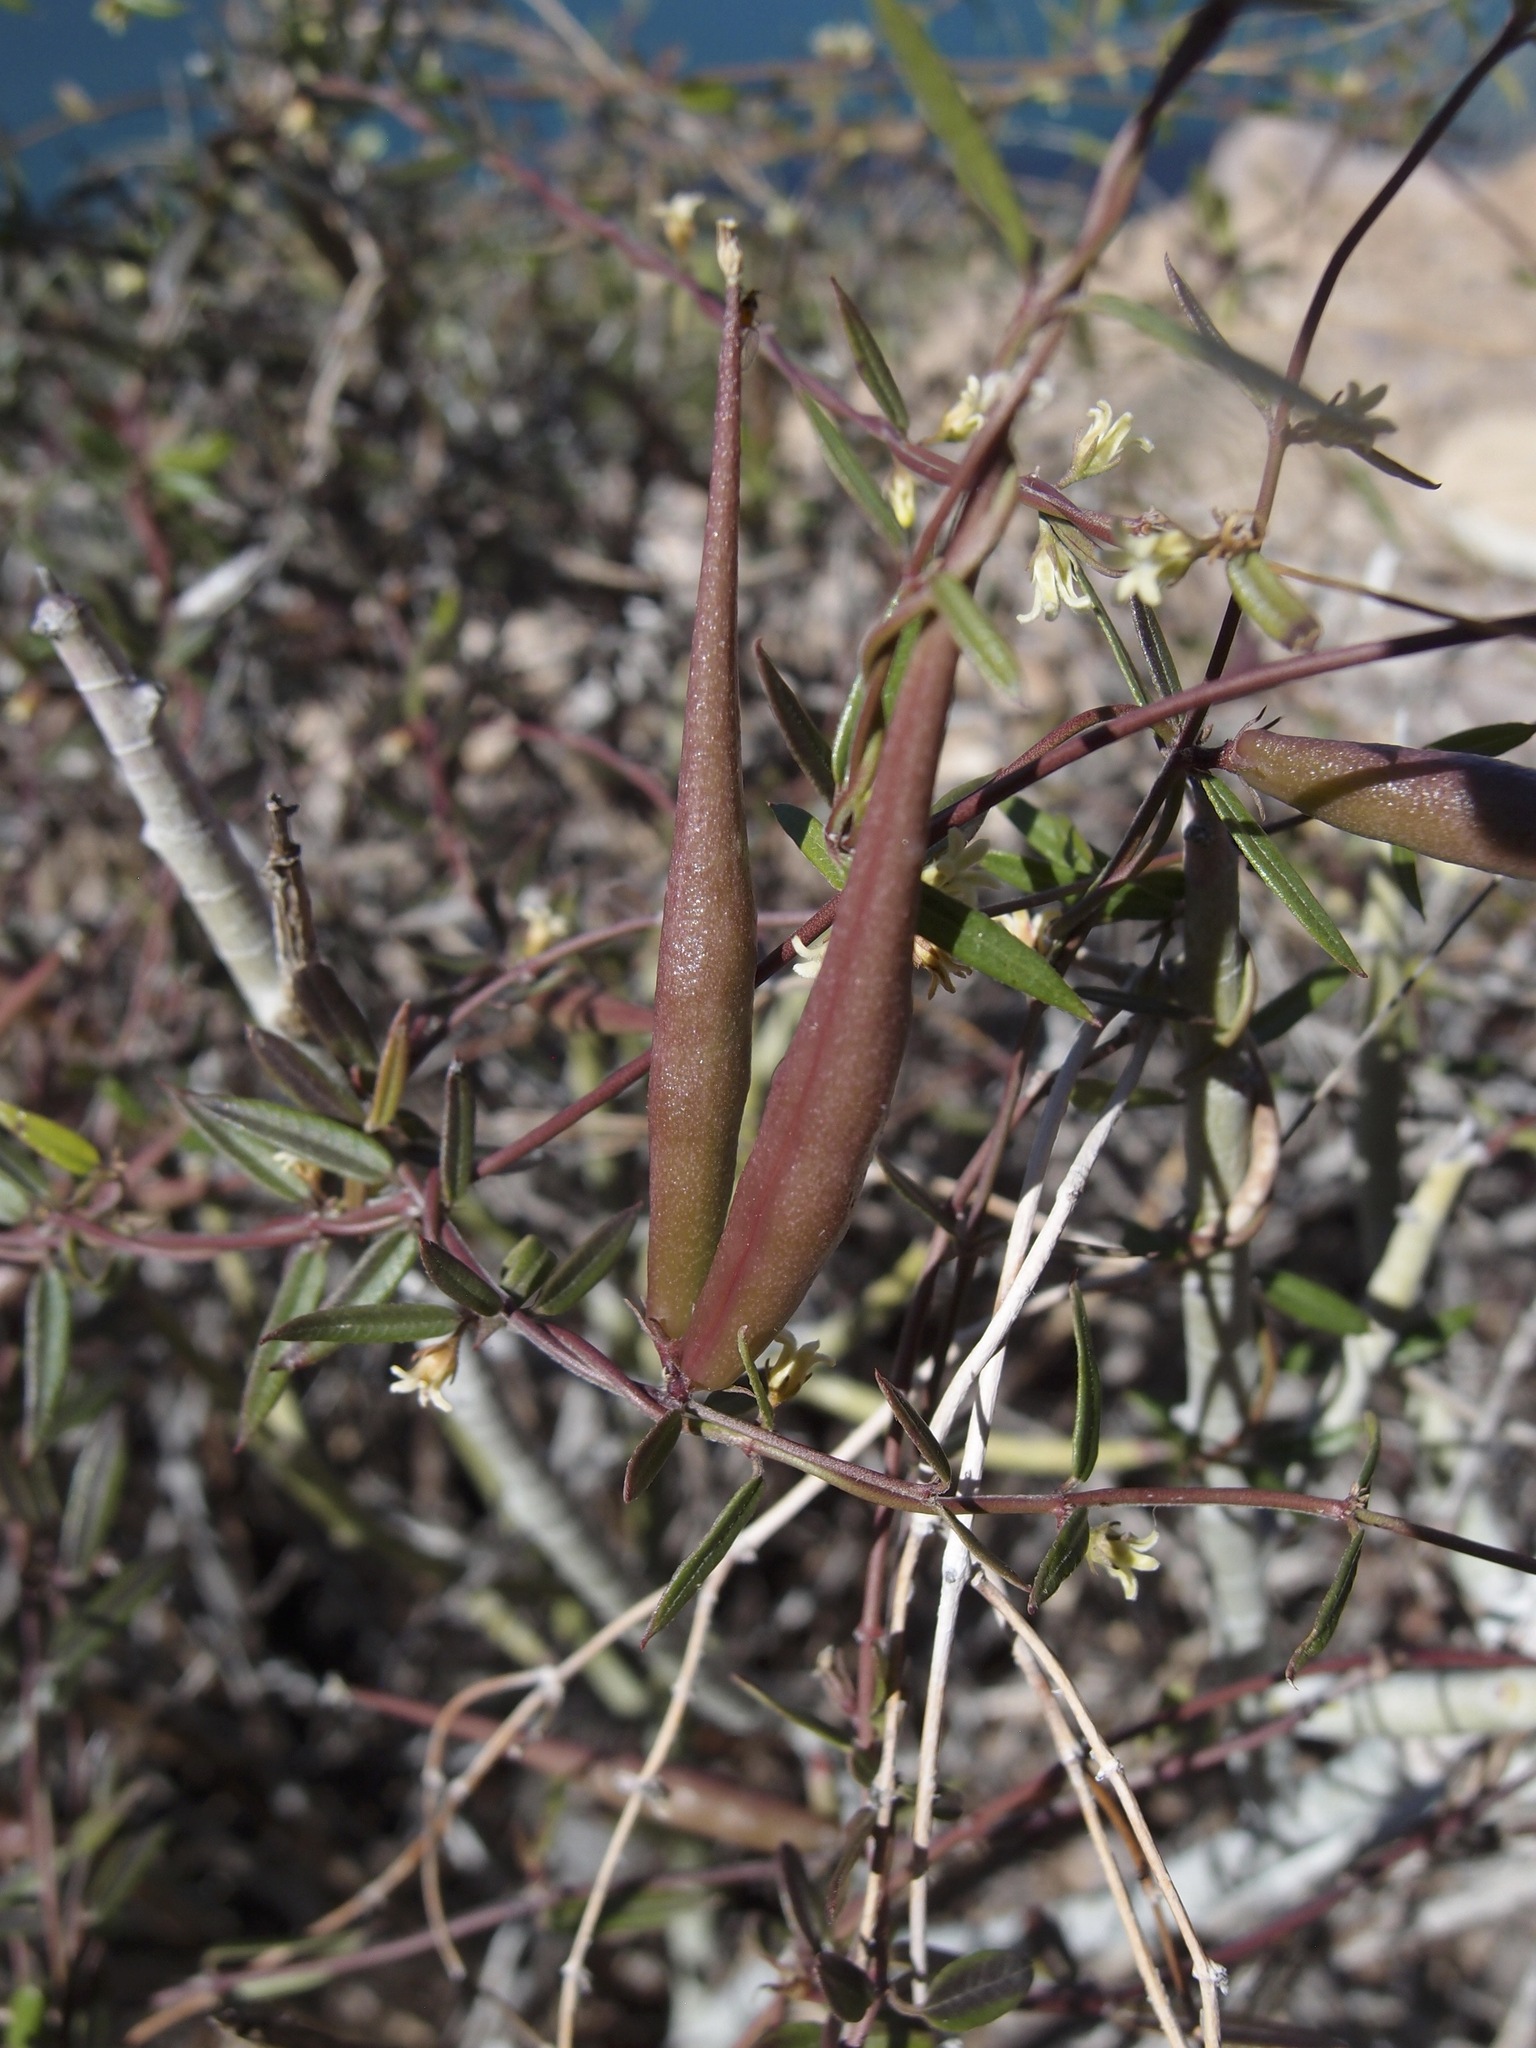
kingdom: Plantae
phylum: Tracheophyta
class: Magnoliopsida
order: Gentianales
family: Apocynaceae
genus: Metastelma
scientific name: Metastelma arizonicum
